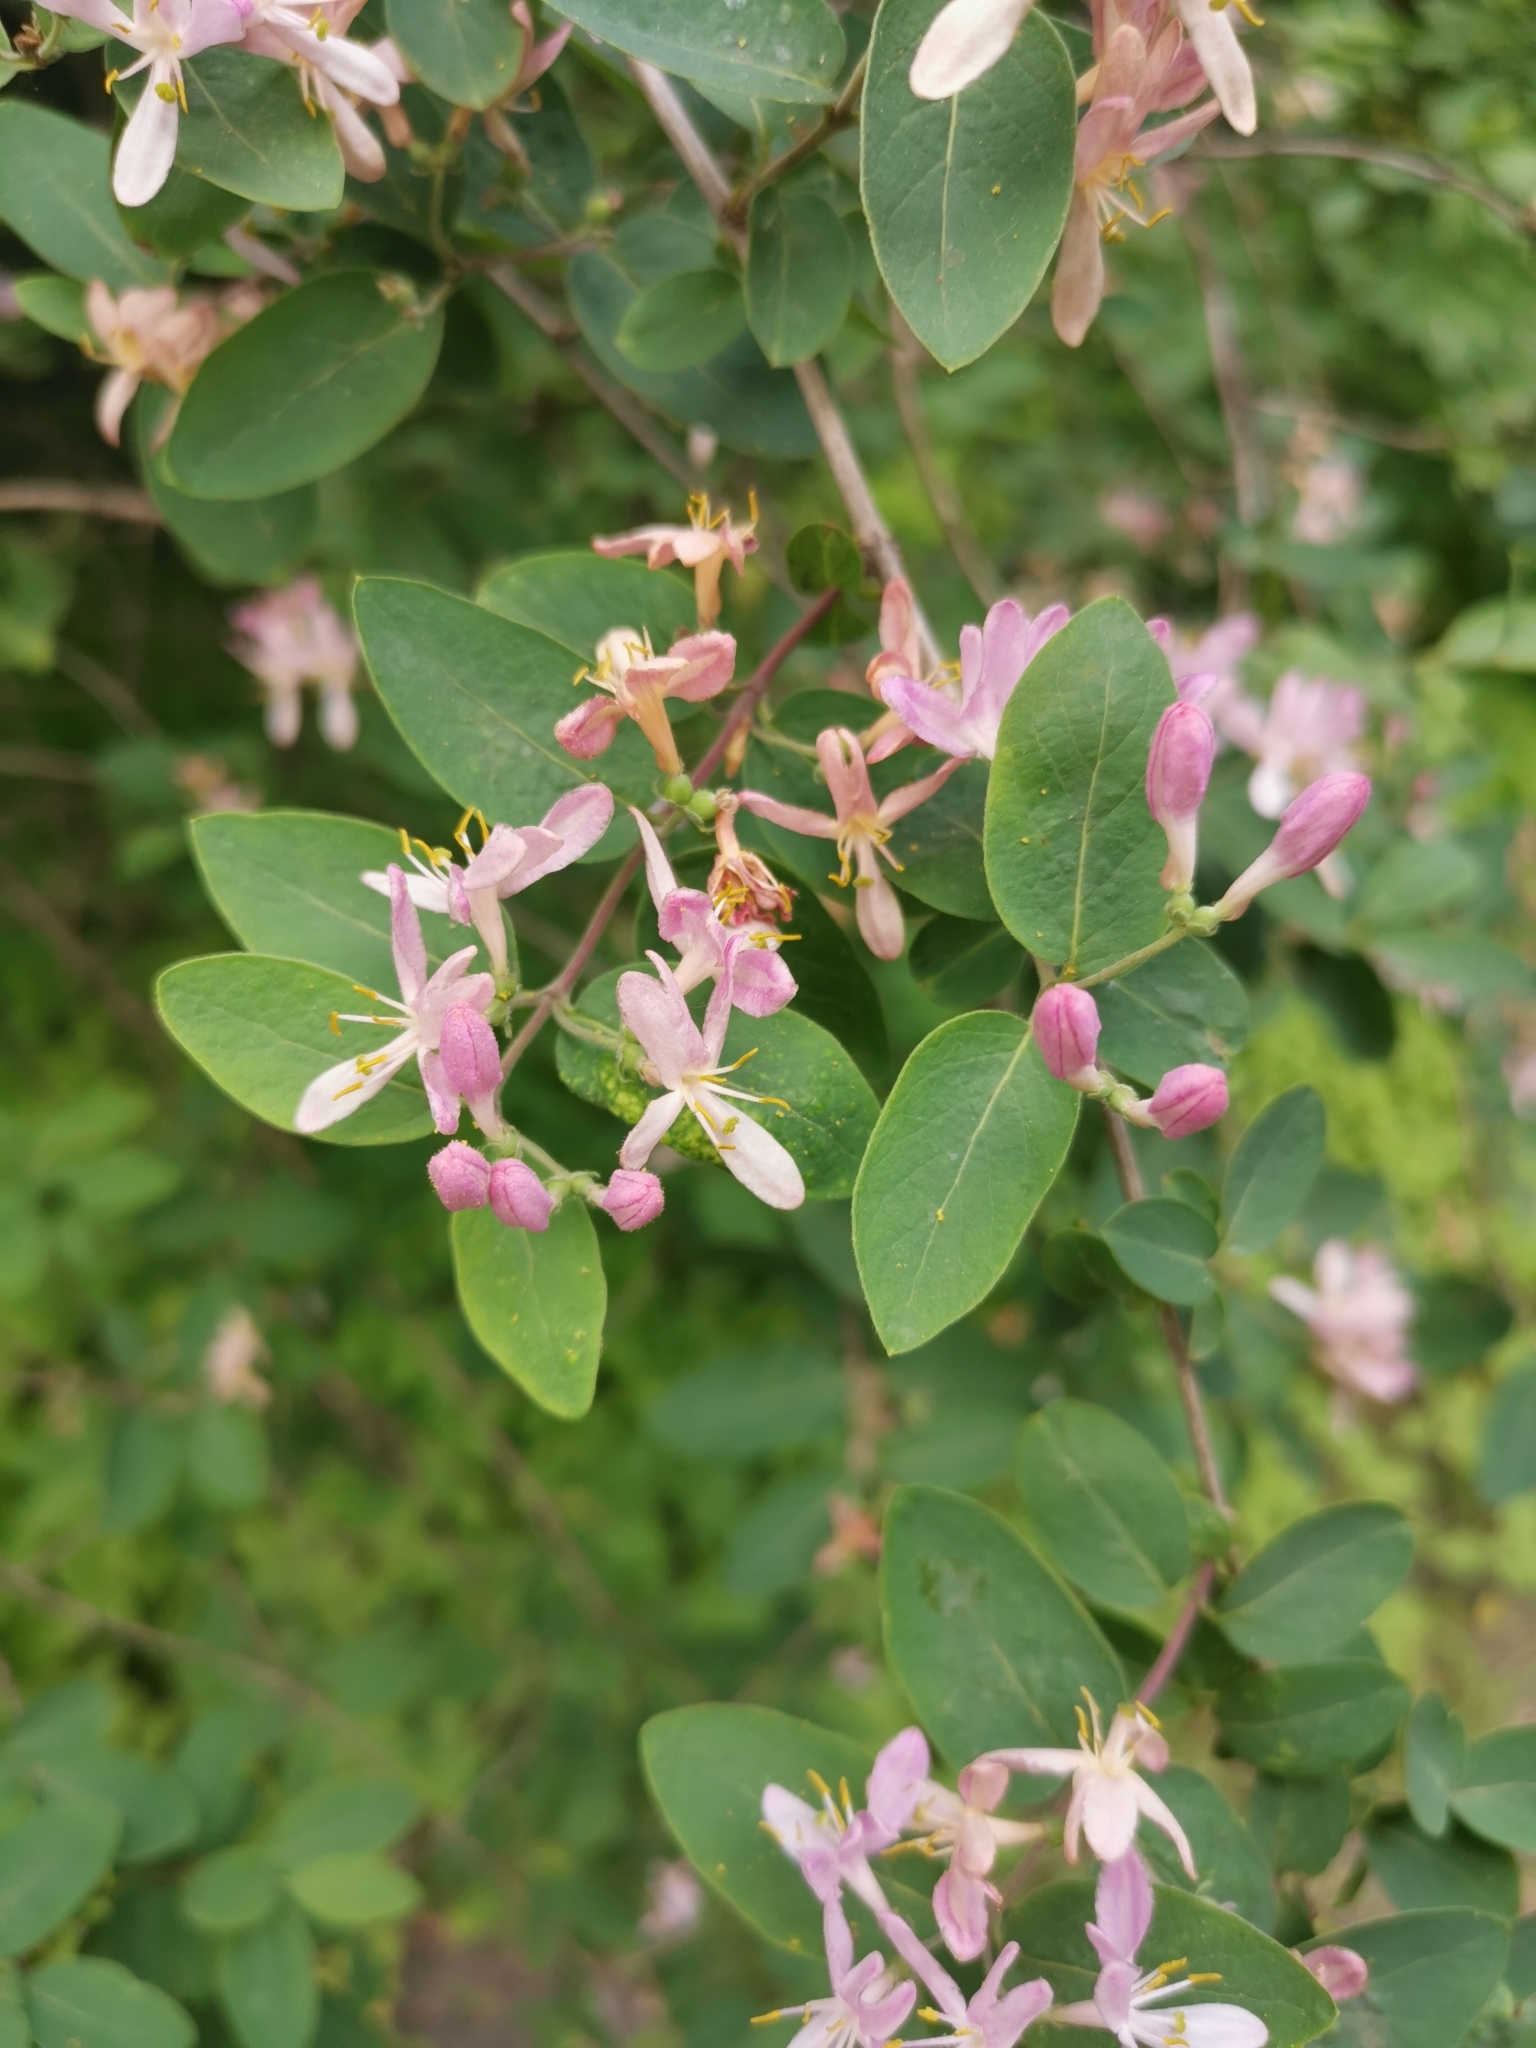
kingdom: Plantae
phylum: Tracheophyta
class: Magnoliopsida
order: Dipsacales
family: Caprifoliaceae
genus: Lonicera
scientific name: Lonicera tatarica
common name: Tatarian honeysuckle
